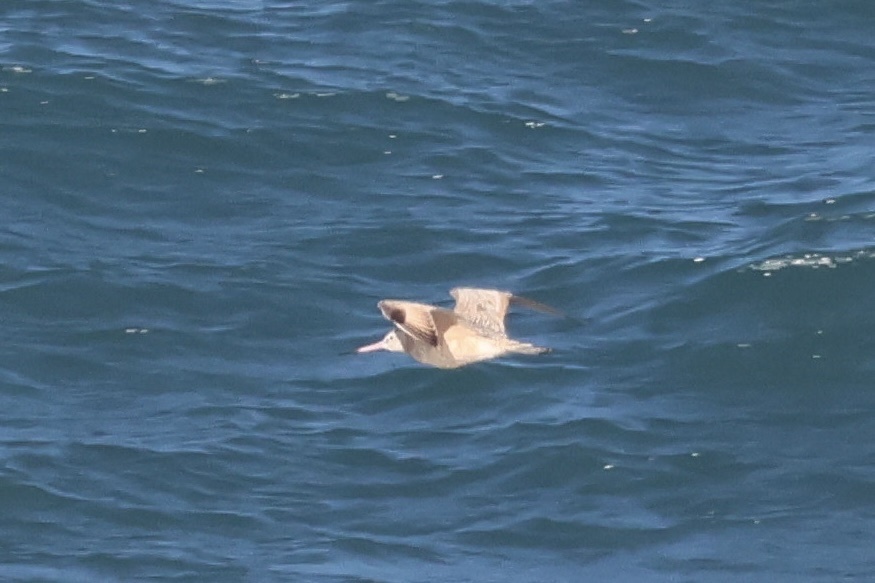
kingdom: Animalia
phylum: Chordata
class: Aves
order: Charadriiformes
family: Scolopacidae
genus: Limosa
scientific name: Limosa fedoa
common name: Marbled godwit
